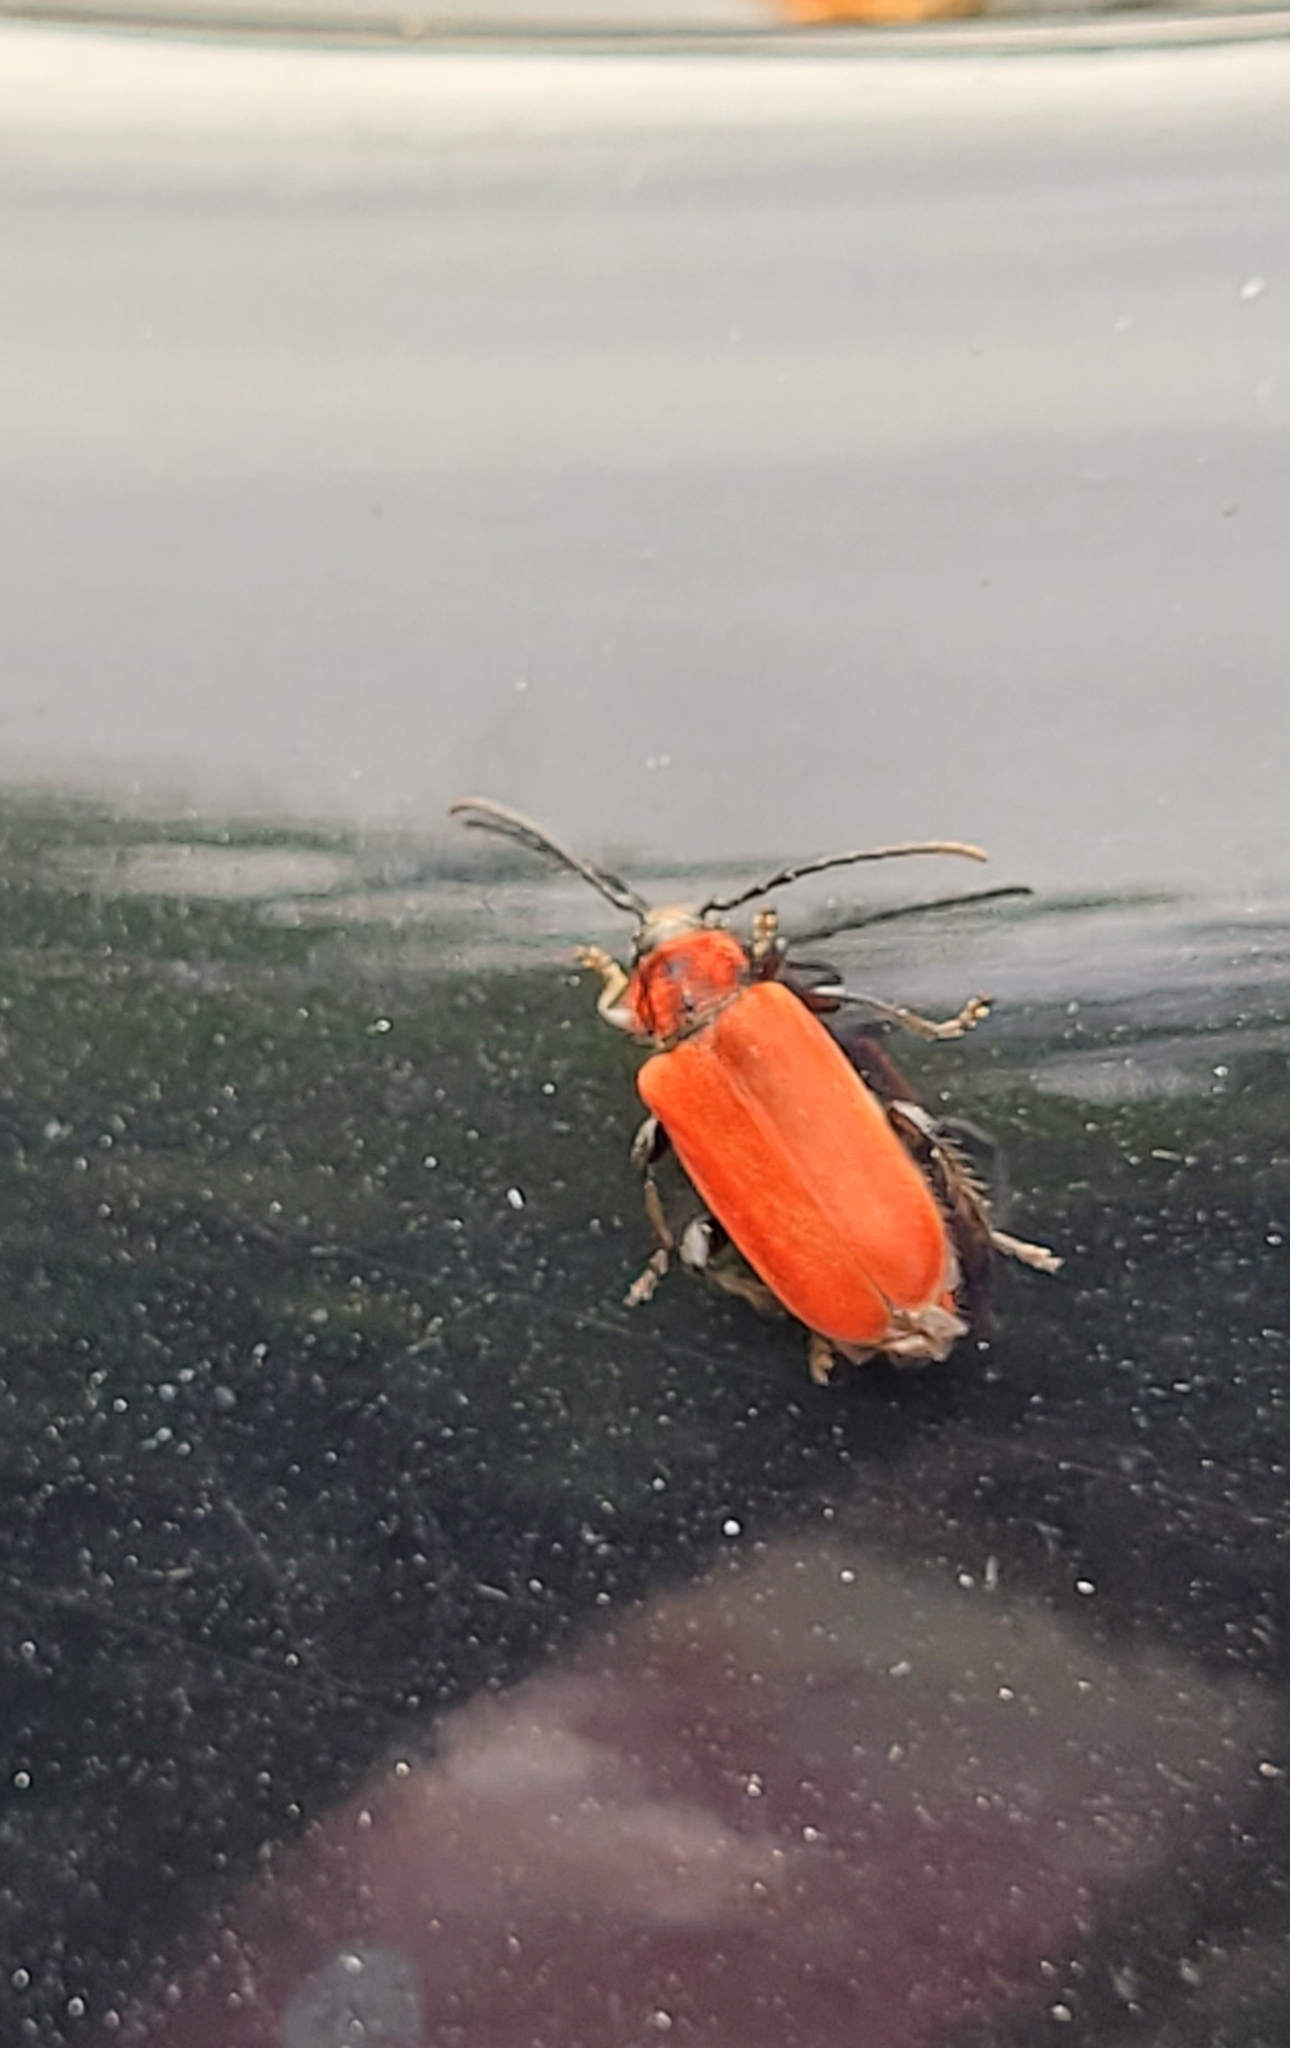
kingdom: Animalia
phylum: Arthropoda
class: Insecta
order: Coleoptera
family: Cerambycidae
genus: Pyrrhidium
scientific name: Pyrrhidium sanguineum
